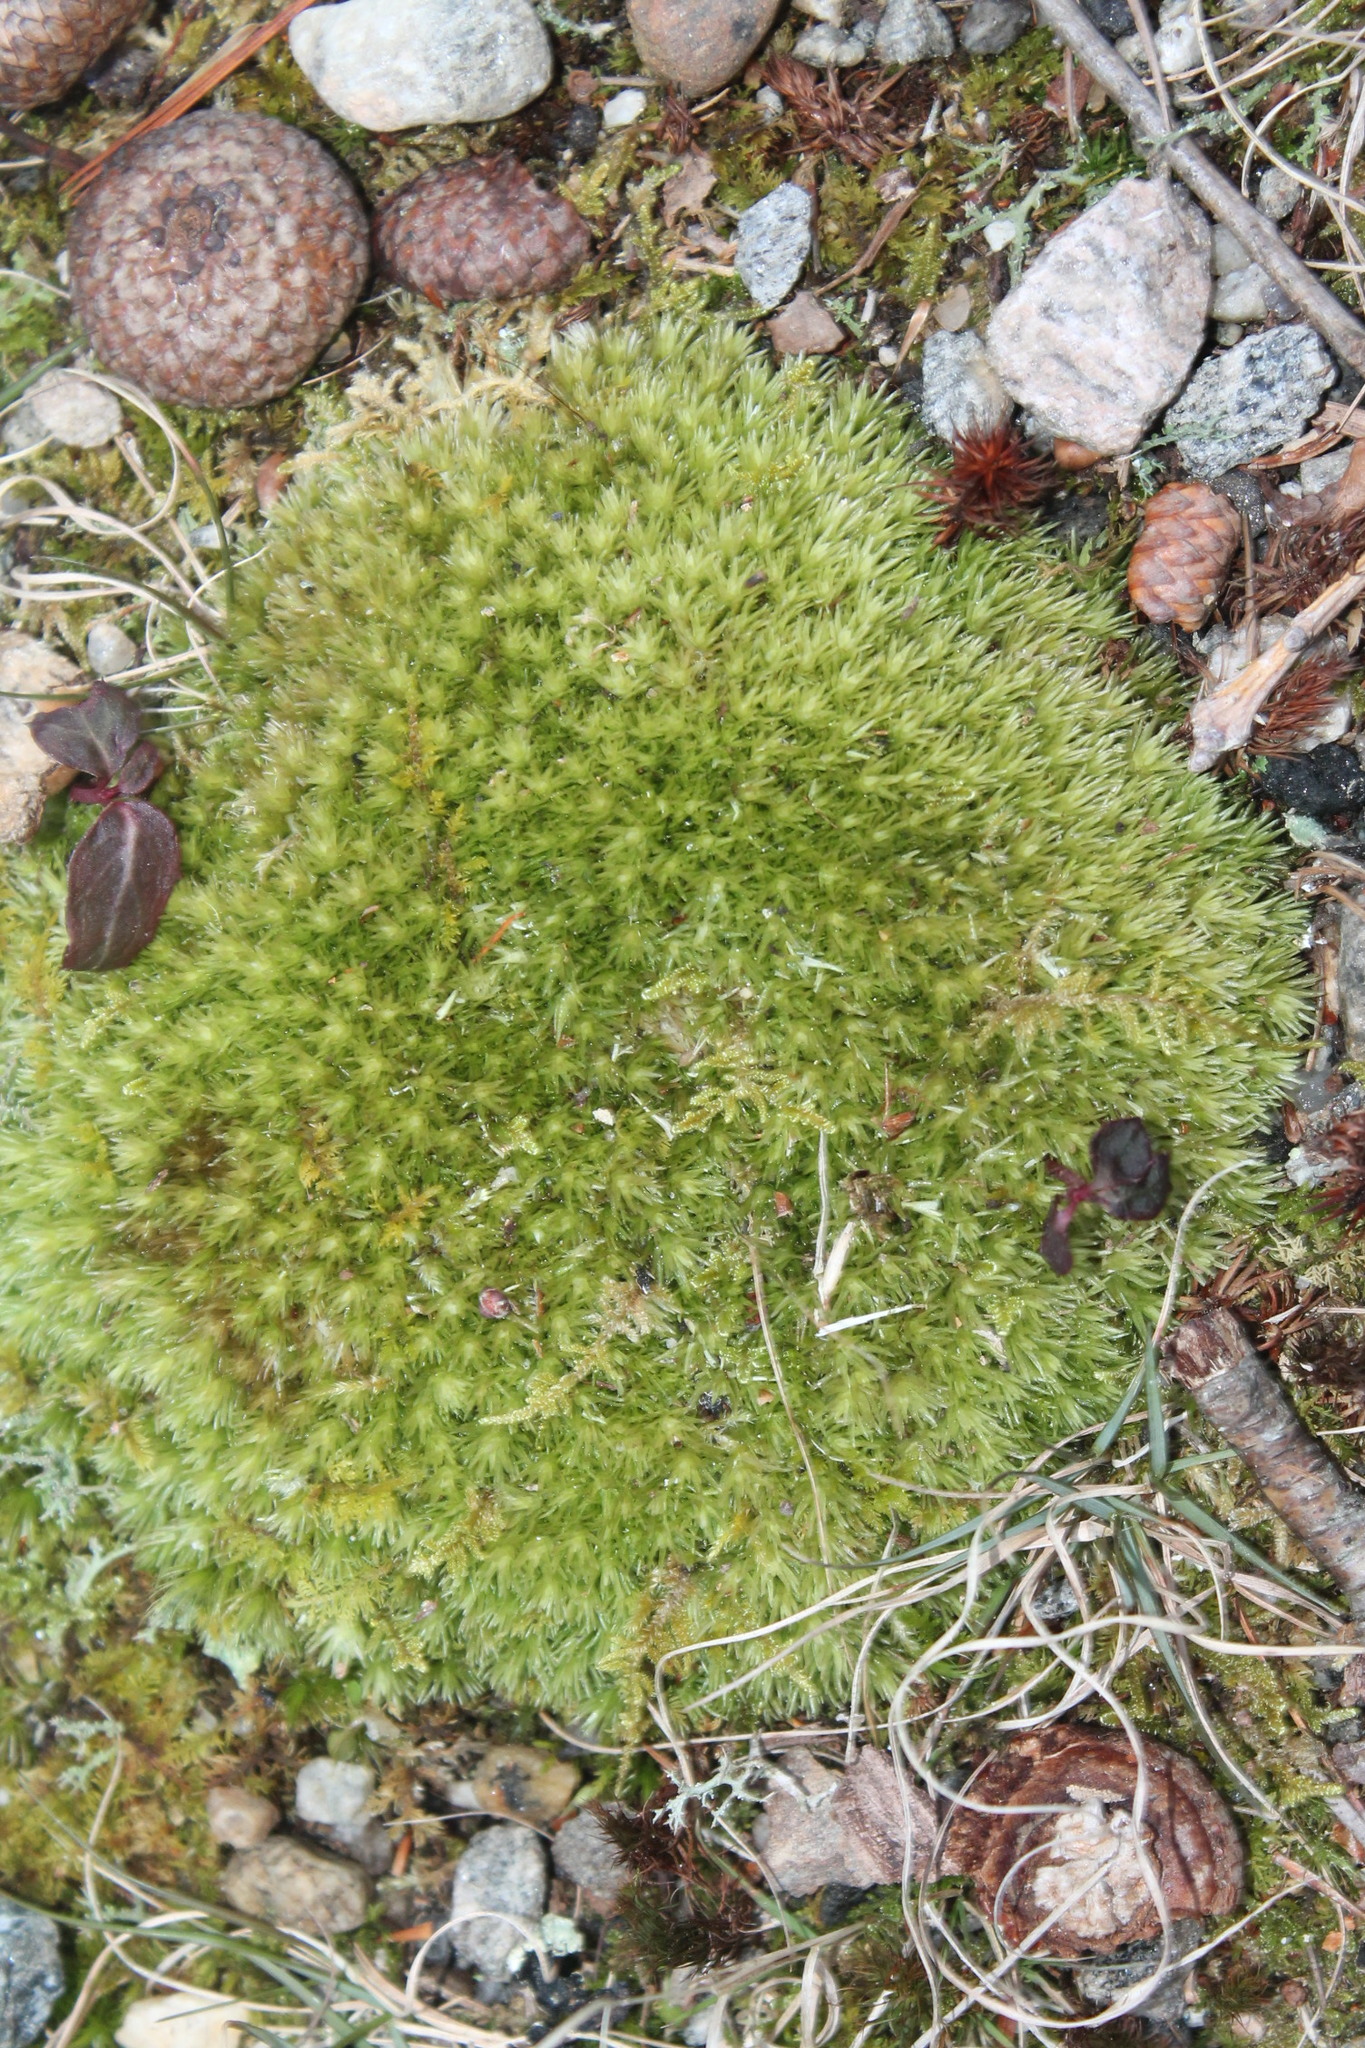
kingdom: Plantae
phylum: Bryophyta
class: Bryopsida
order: Dicranales
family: Leucobryaceae
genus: Leucobryum
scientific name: Leucobryum glaucum
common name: Large white-moss
